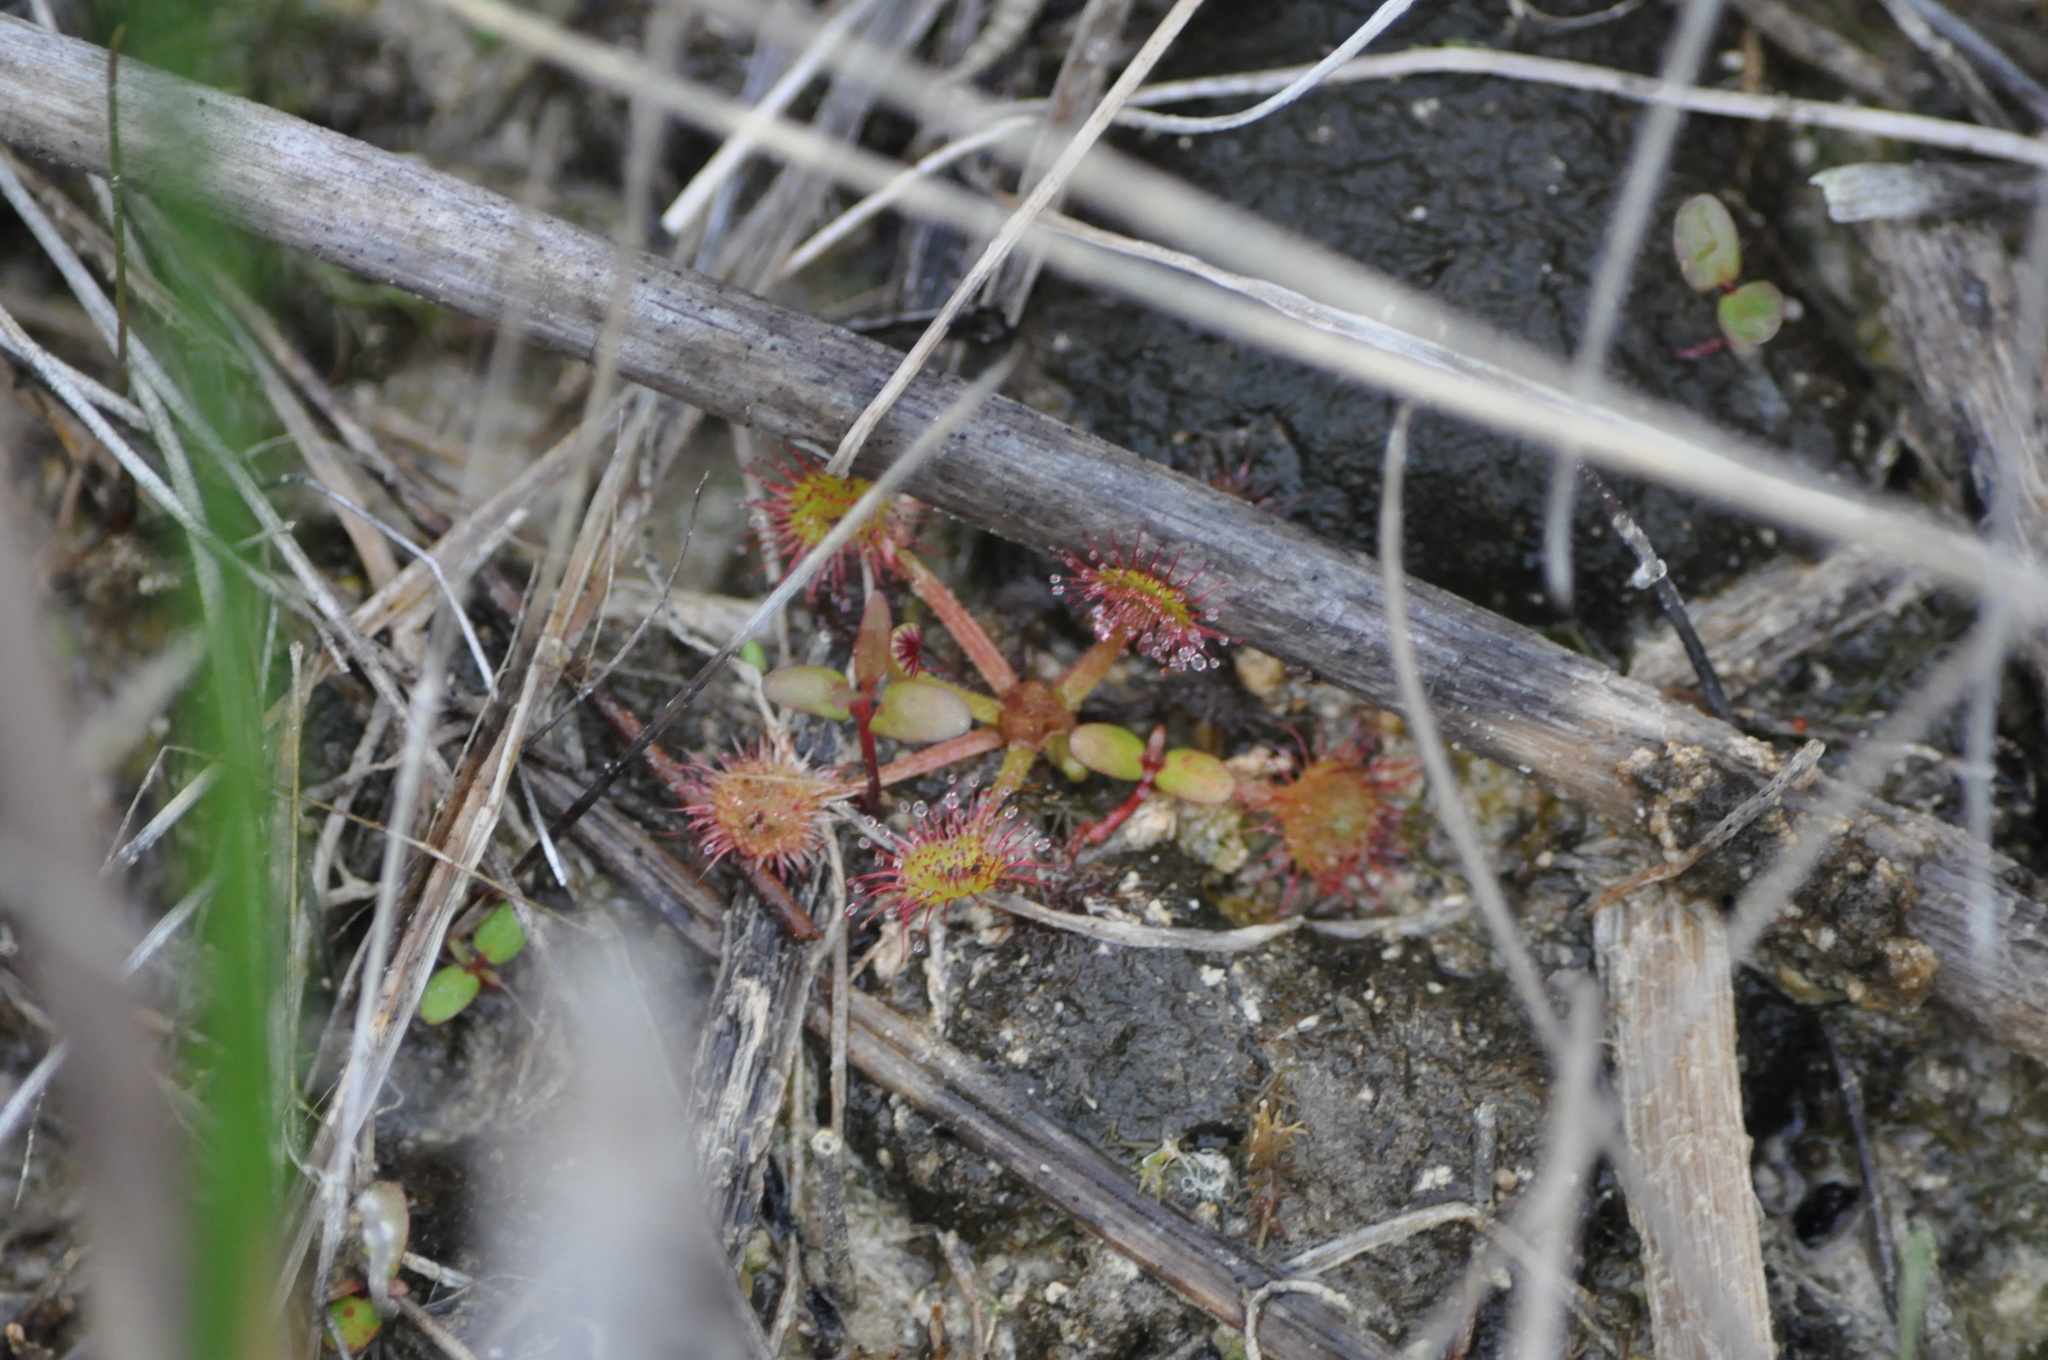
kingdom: Plantae
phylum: Tracheophyta
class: Magnoliopsida
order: Caryophyllales
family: Droseraceae
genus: Drosera
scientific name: Drosera rotundifolia
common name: Round-leaved sundew
